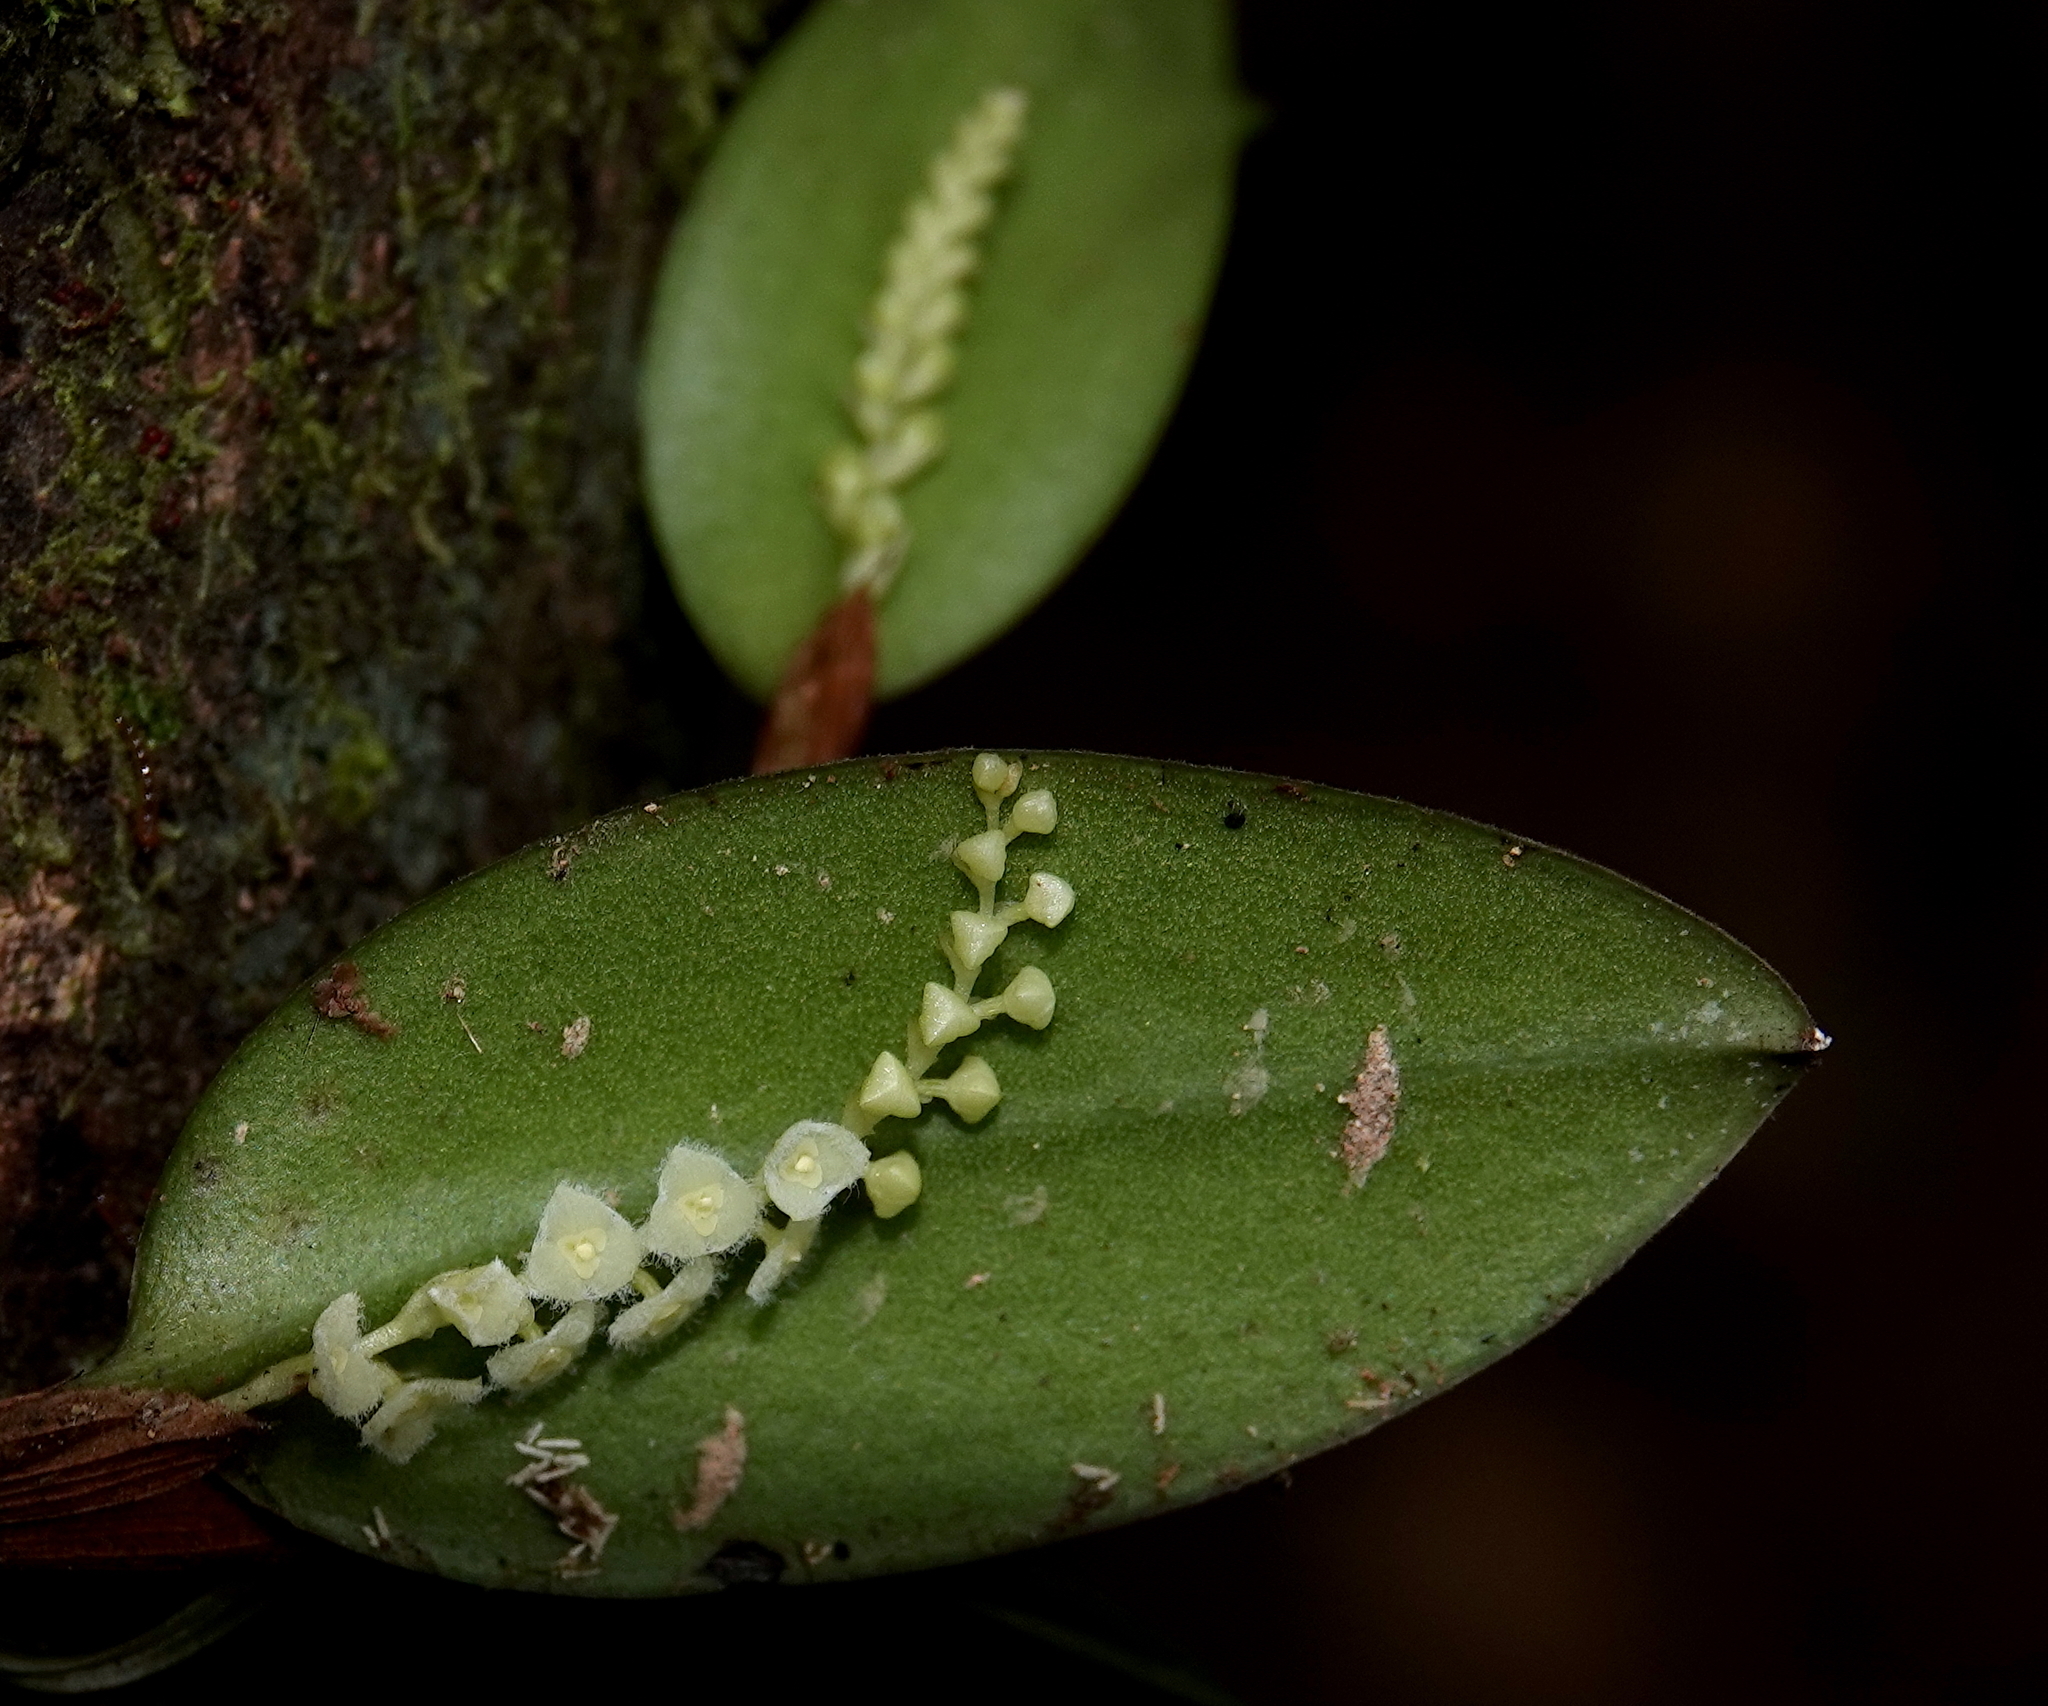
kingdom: Plantae
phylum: Tracheophyta
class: Liliopsida
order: Asparagales
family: Orchidaceae
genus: Stelis
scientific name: Stelis morganii
